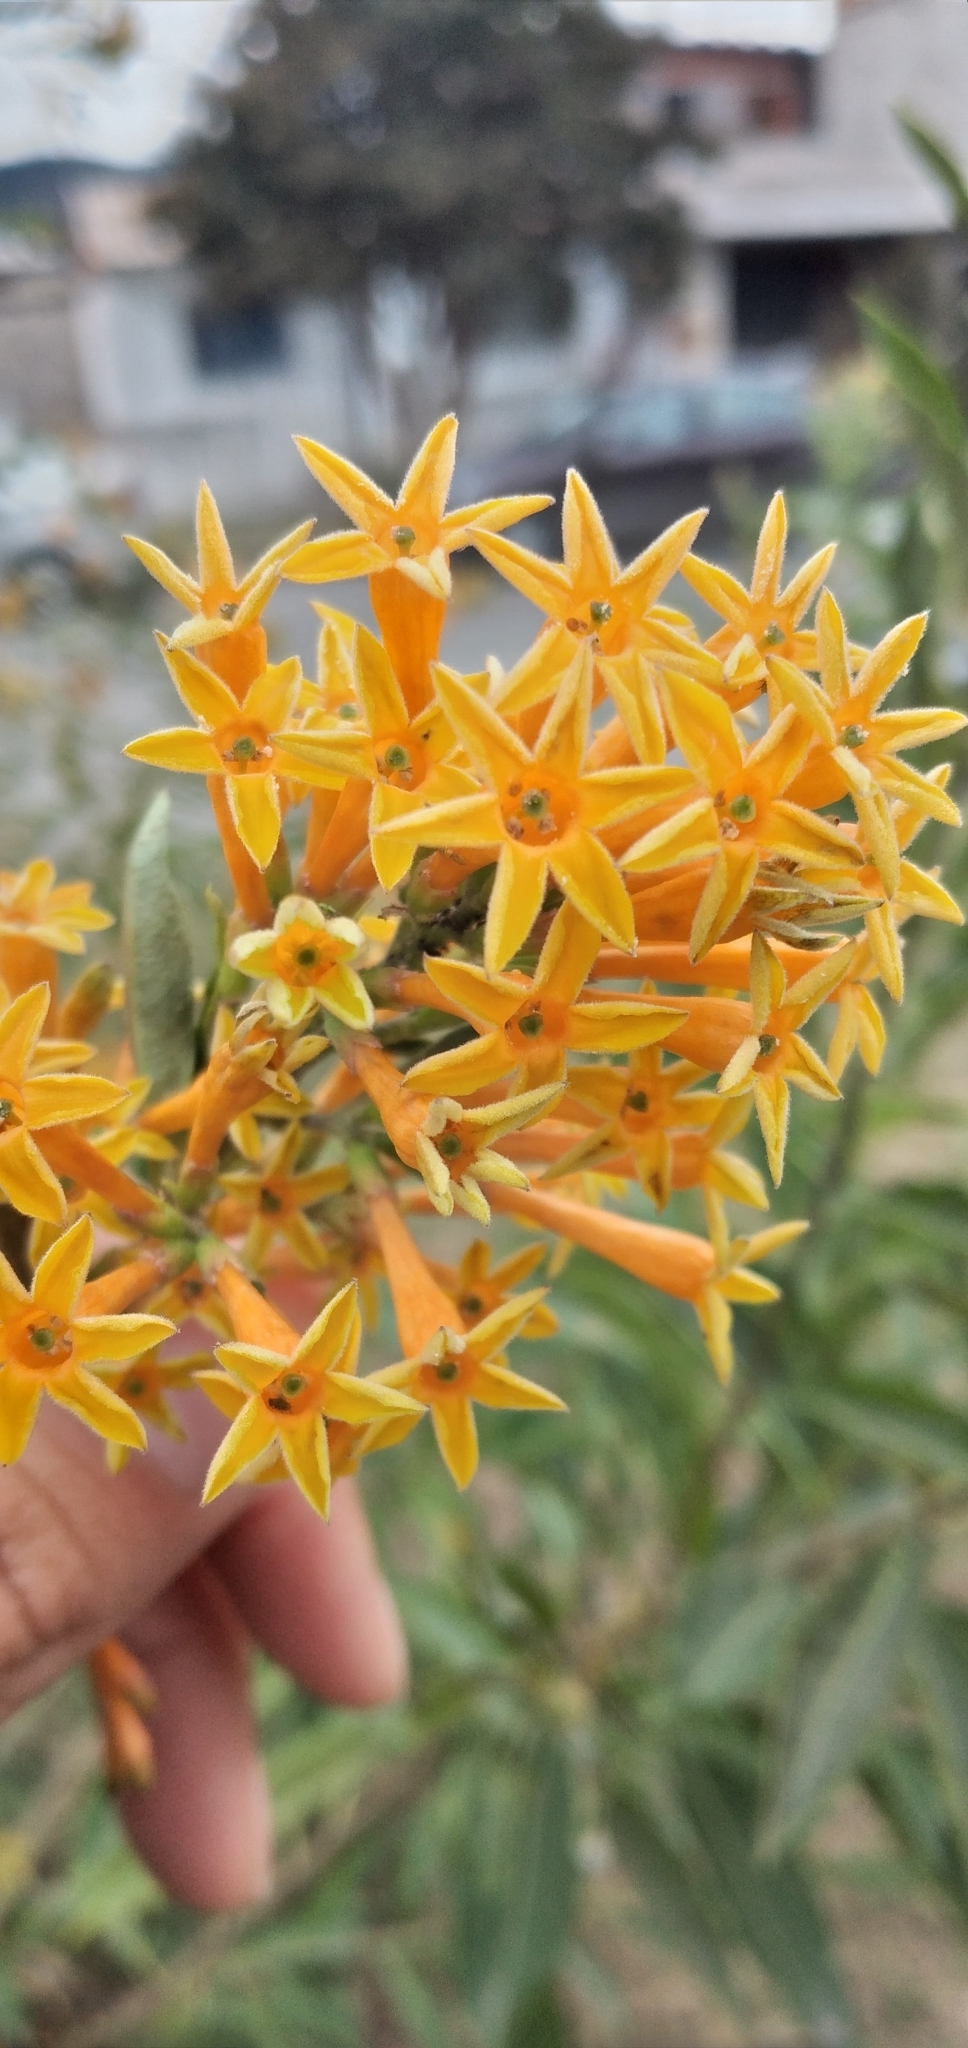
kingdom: Plantae
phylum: Tracheophyta
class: Magnoliopsida
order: Solanales
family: Solanaceae
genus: Cestrum
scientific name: Cestrum parqui
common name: Chilean cestrum
